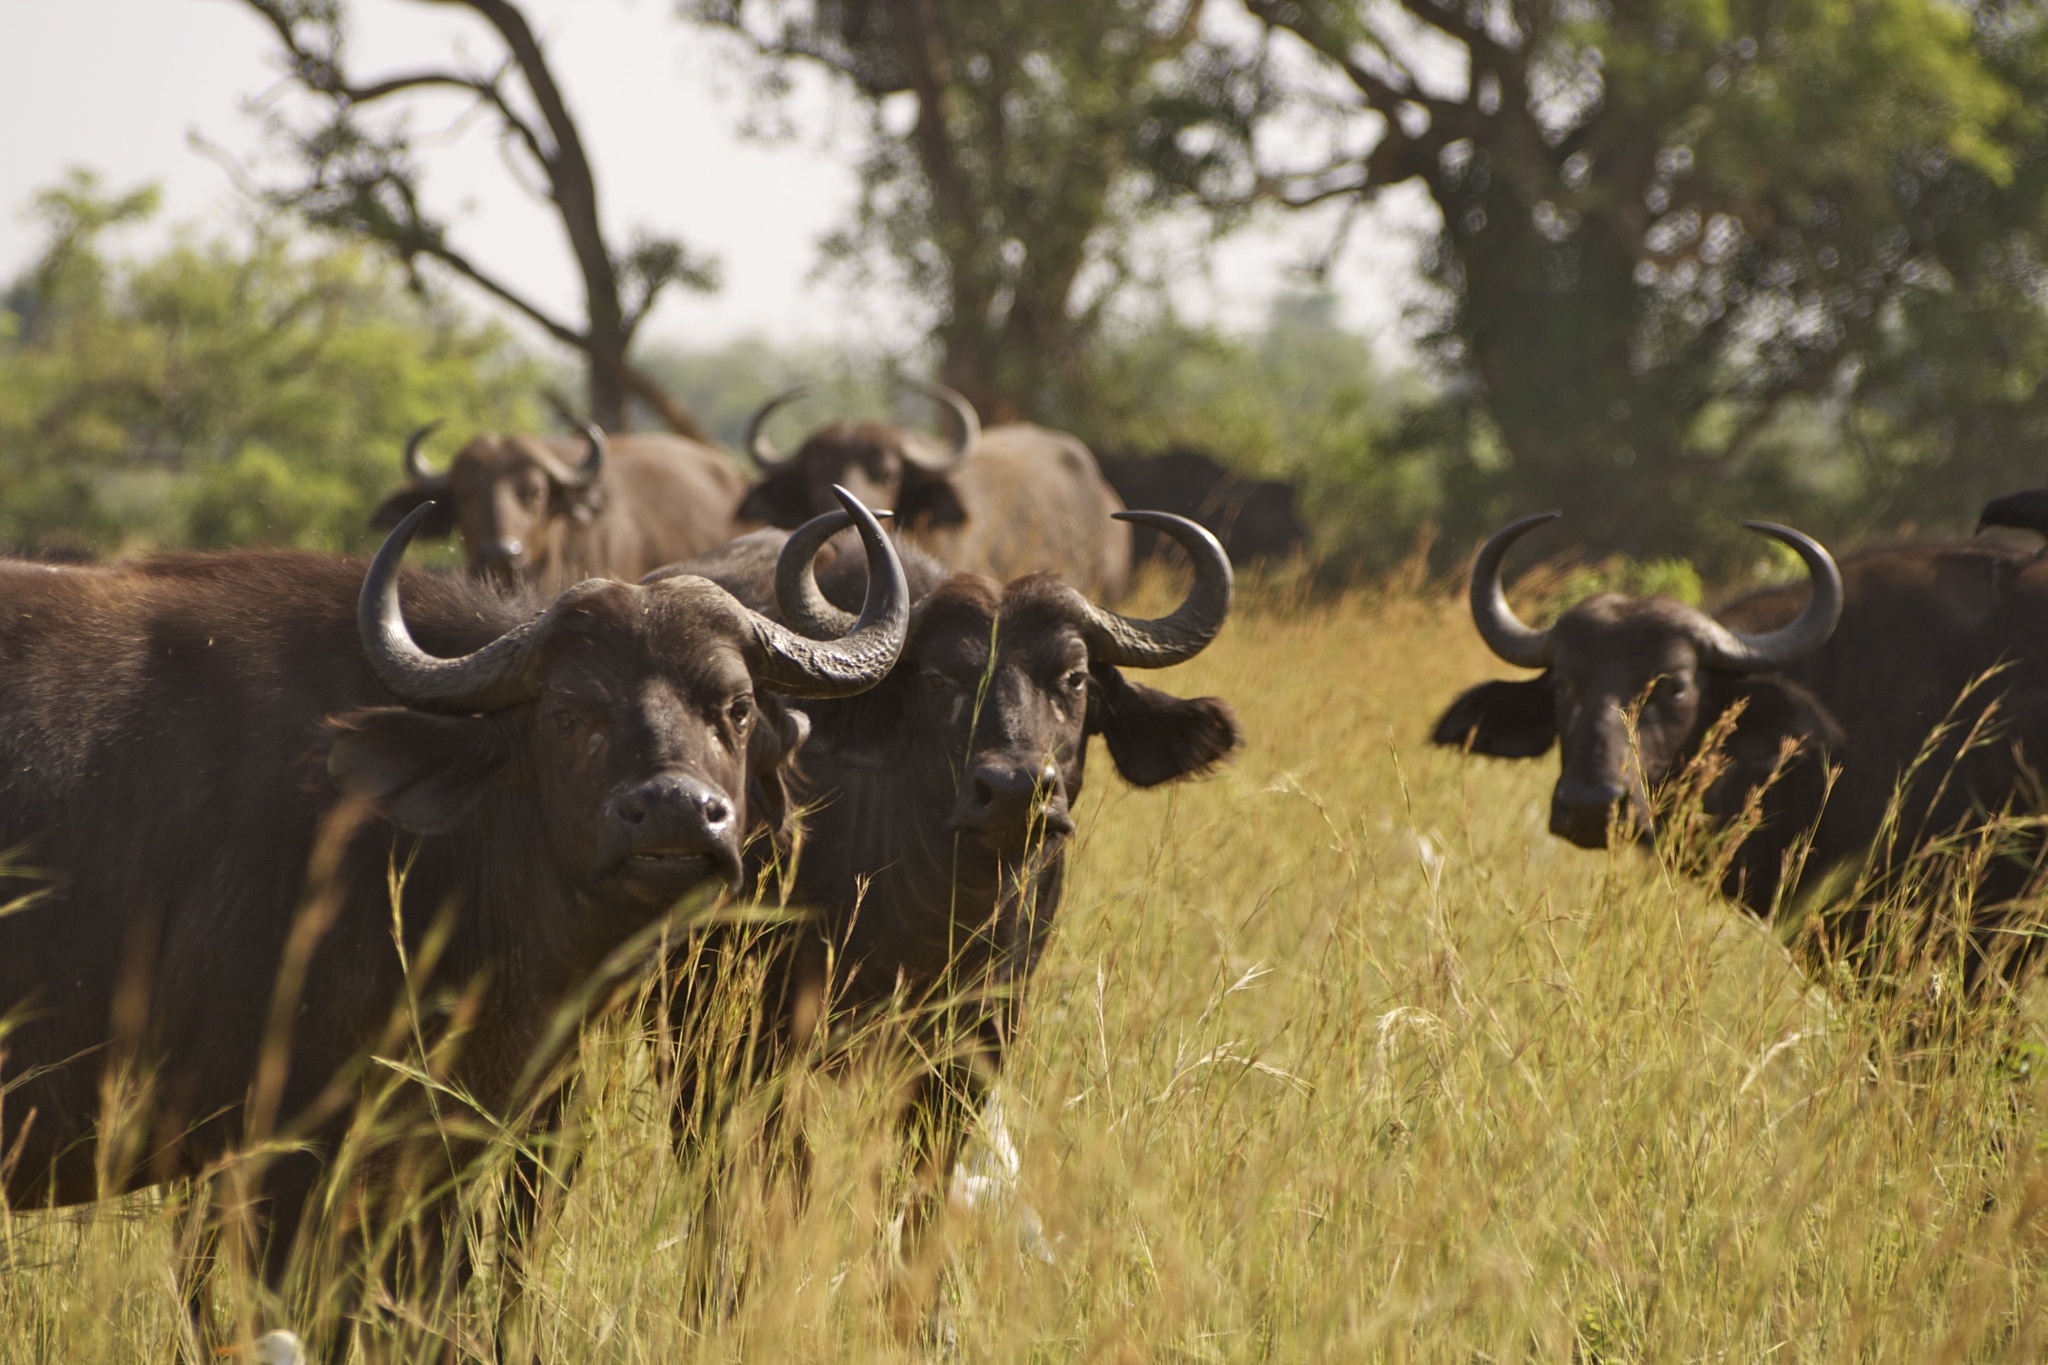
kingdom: Animalia
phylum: Chordata
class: Mammalia
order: Artiodactyla
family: Bovidae
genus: Syncerus
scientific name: Syncerus caffer
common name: African buffalo
